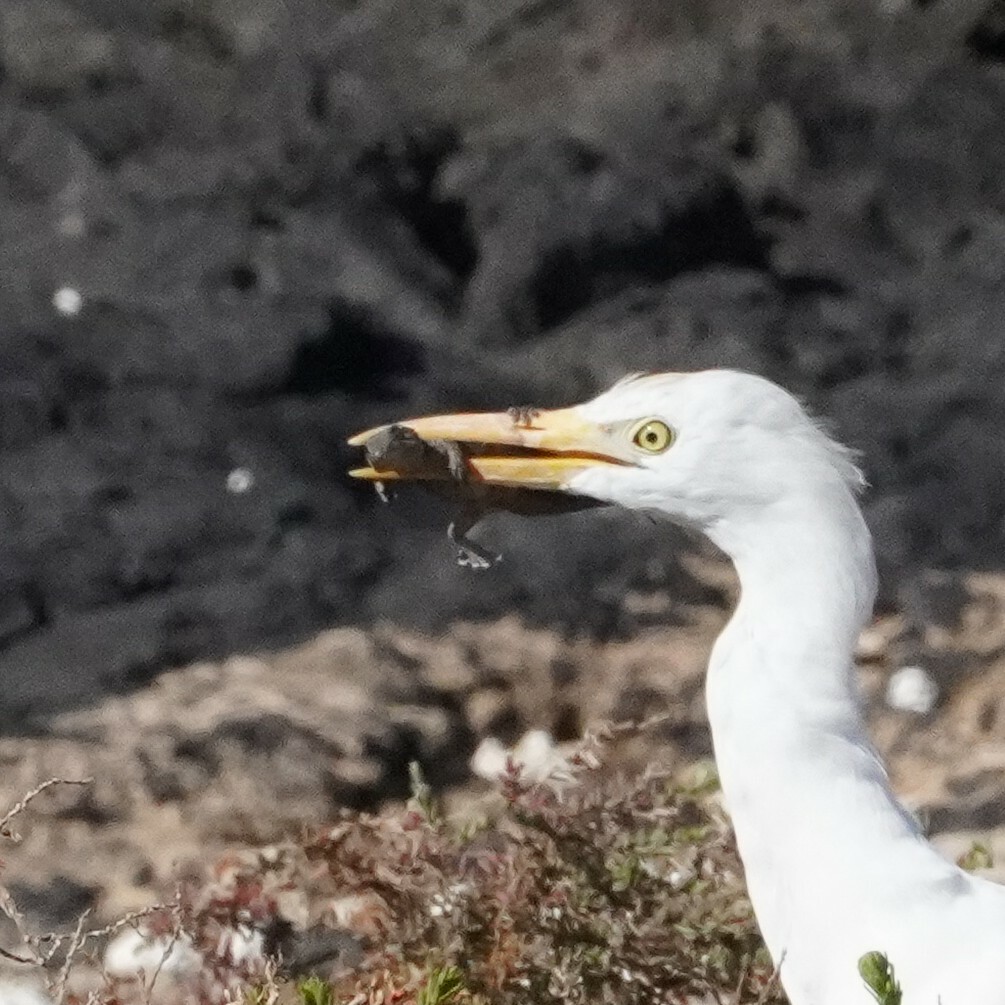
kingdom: Animalia
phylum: Chordata
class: Squamata
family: Phyllodactylidae
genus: Tarentola
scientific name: Tarentola angustimentalis
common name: East canary gecko
